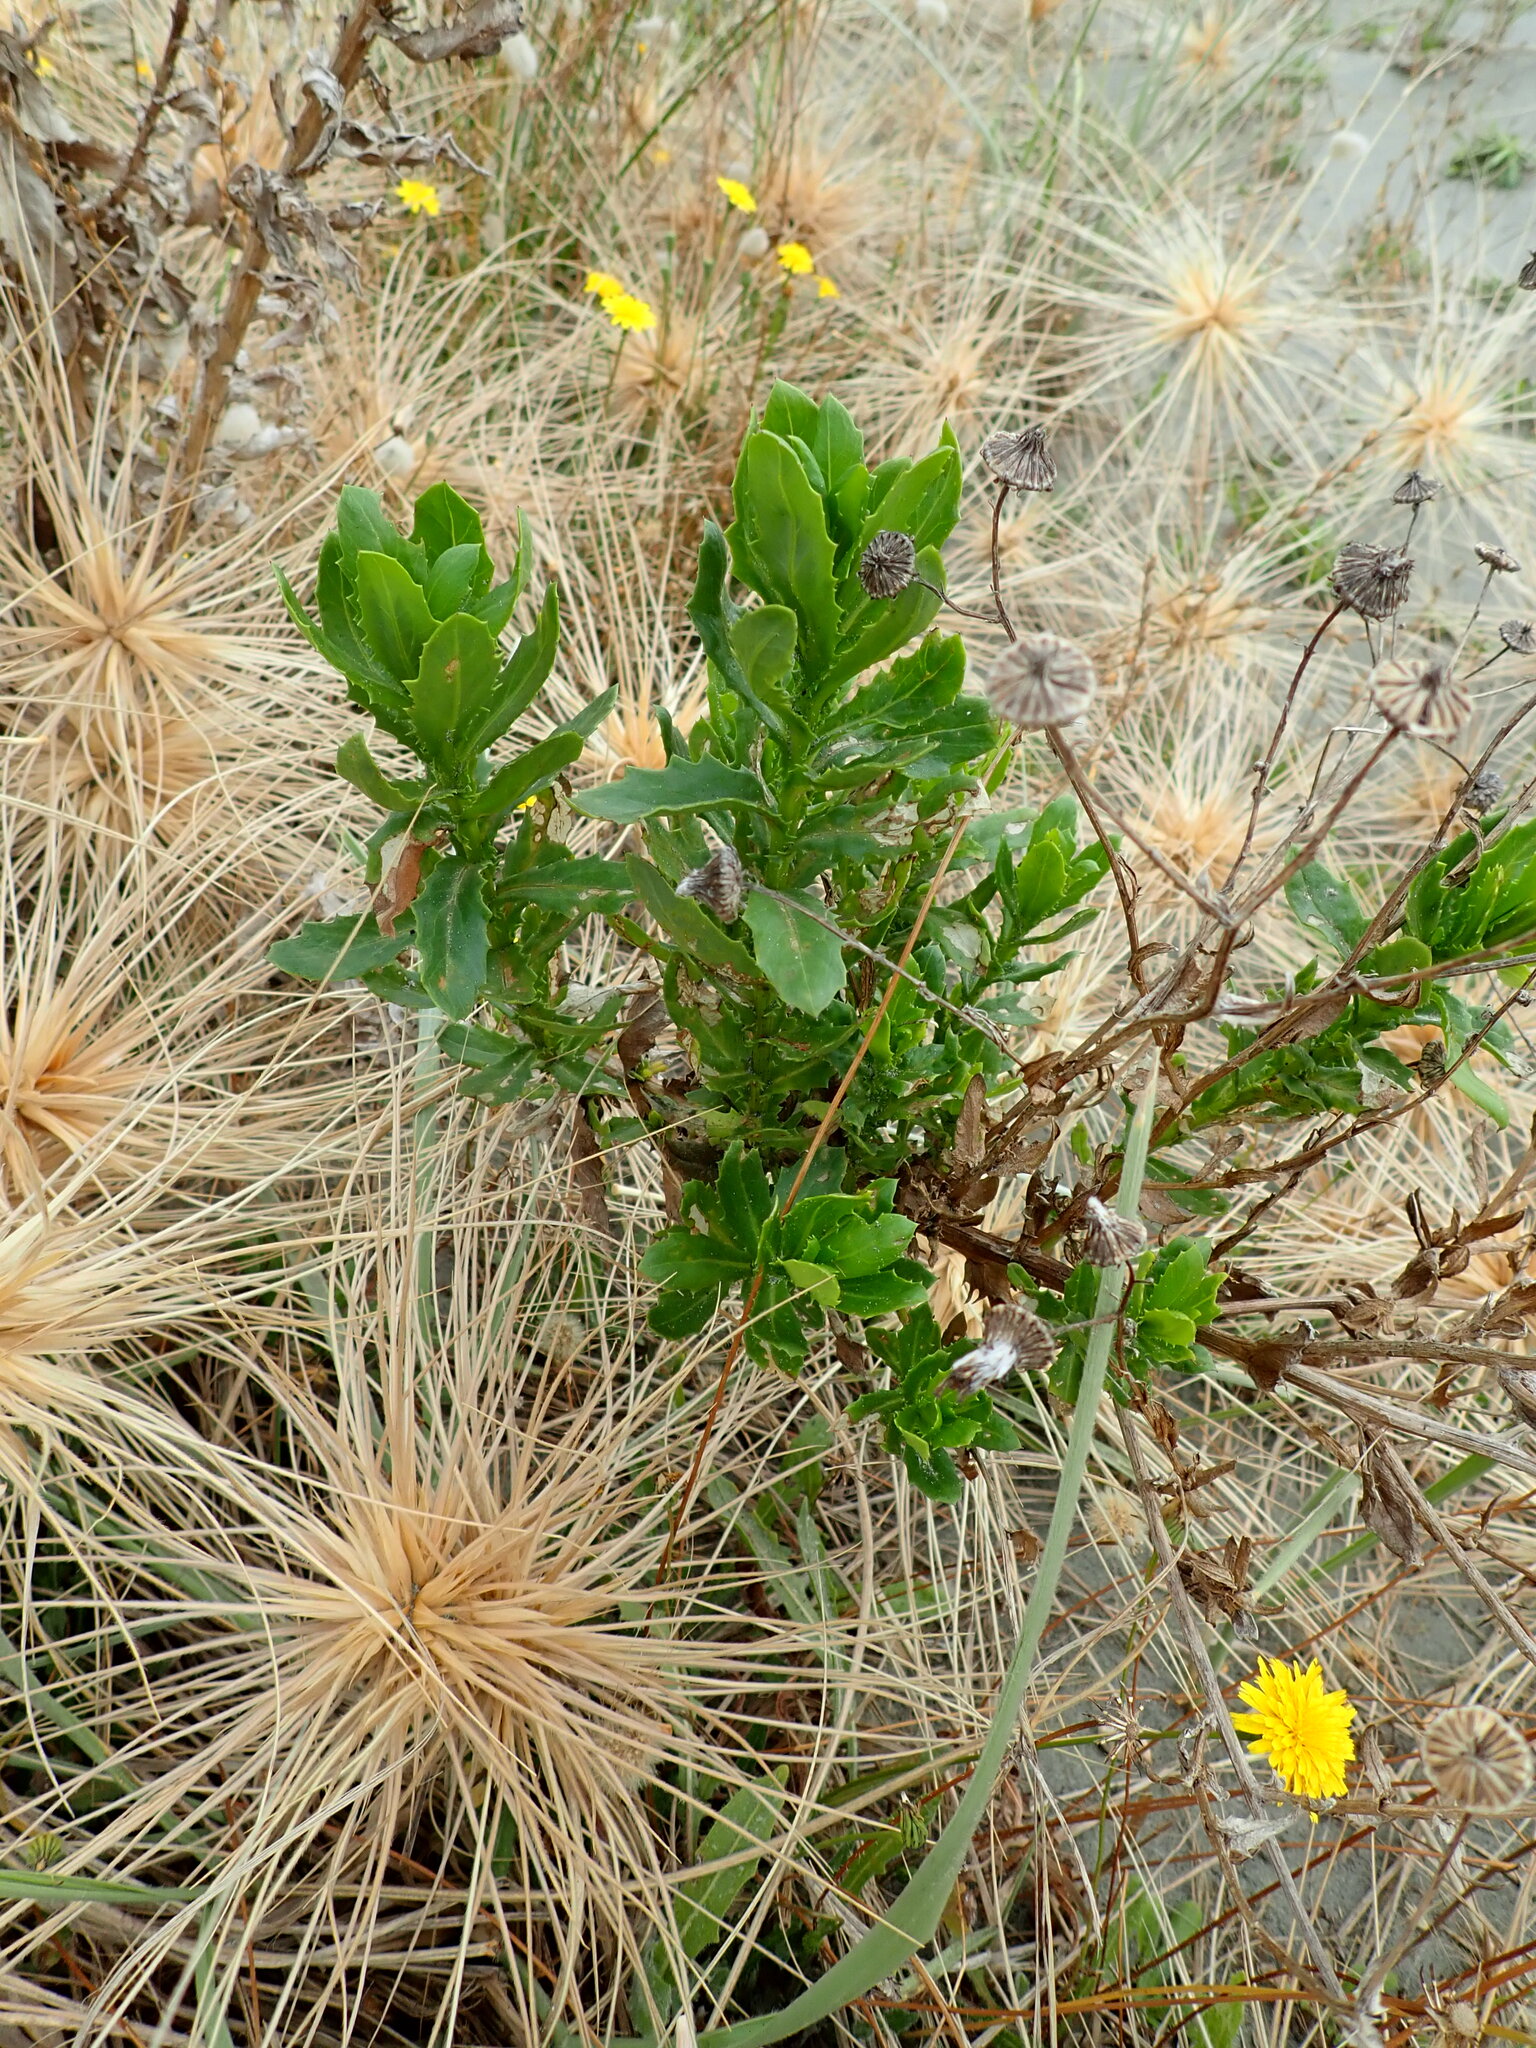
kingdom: Plantae
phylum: Tracheophyta
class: Liliopsida
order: Poales
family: Cyperaceae
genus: Ficinia
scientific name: Ficinia nodosa
